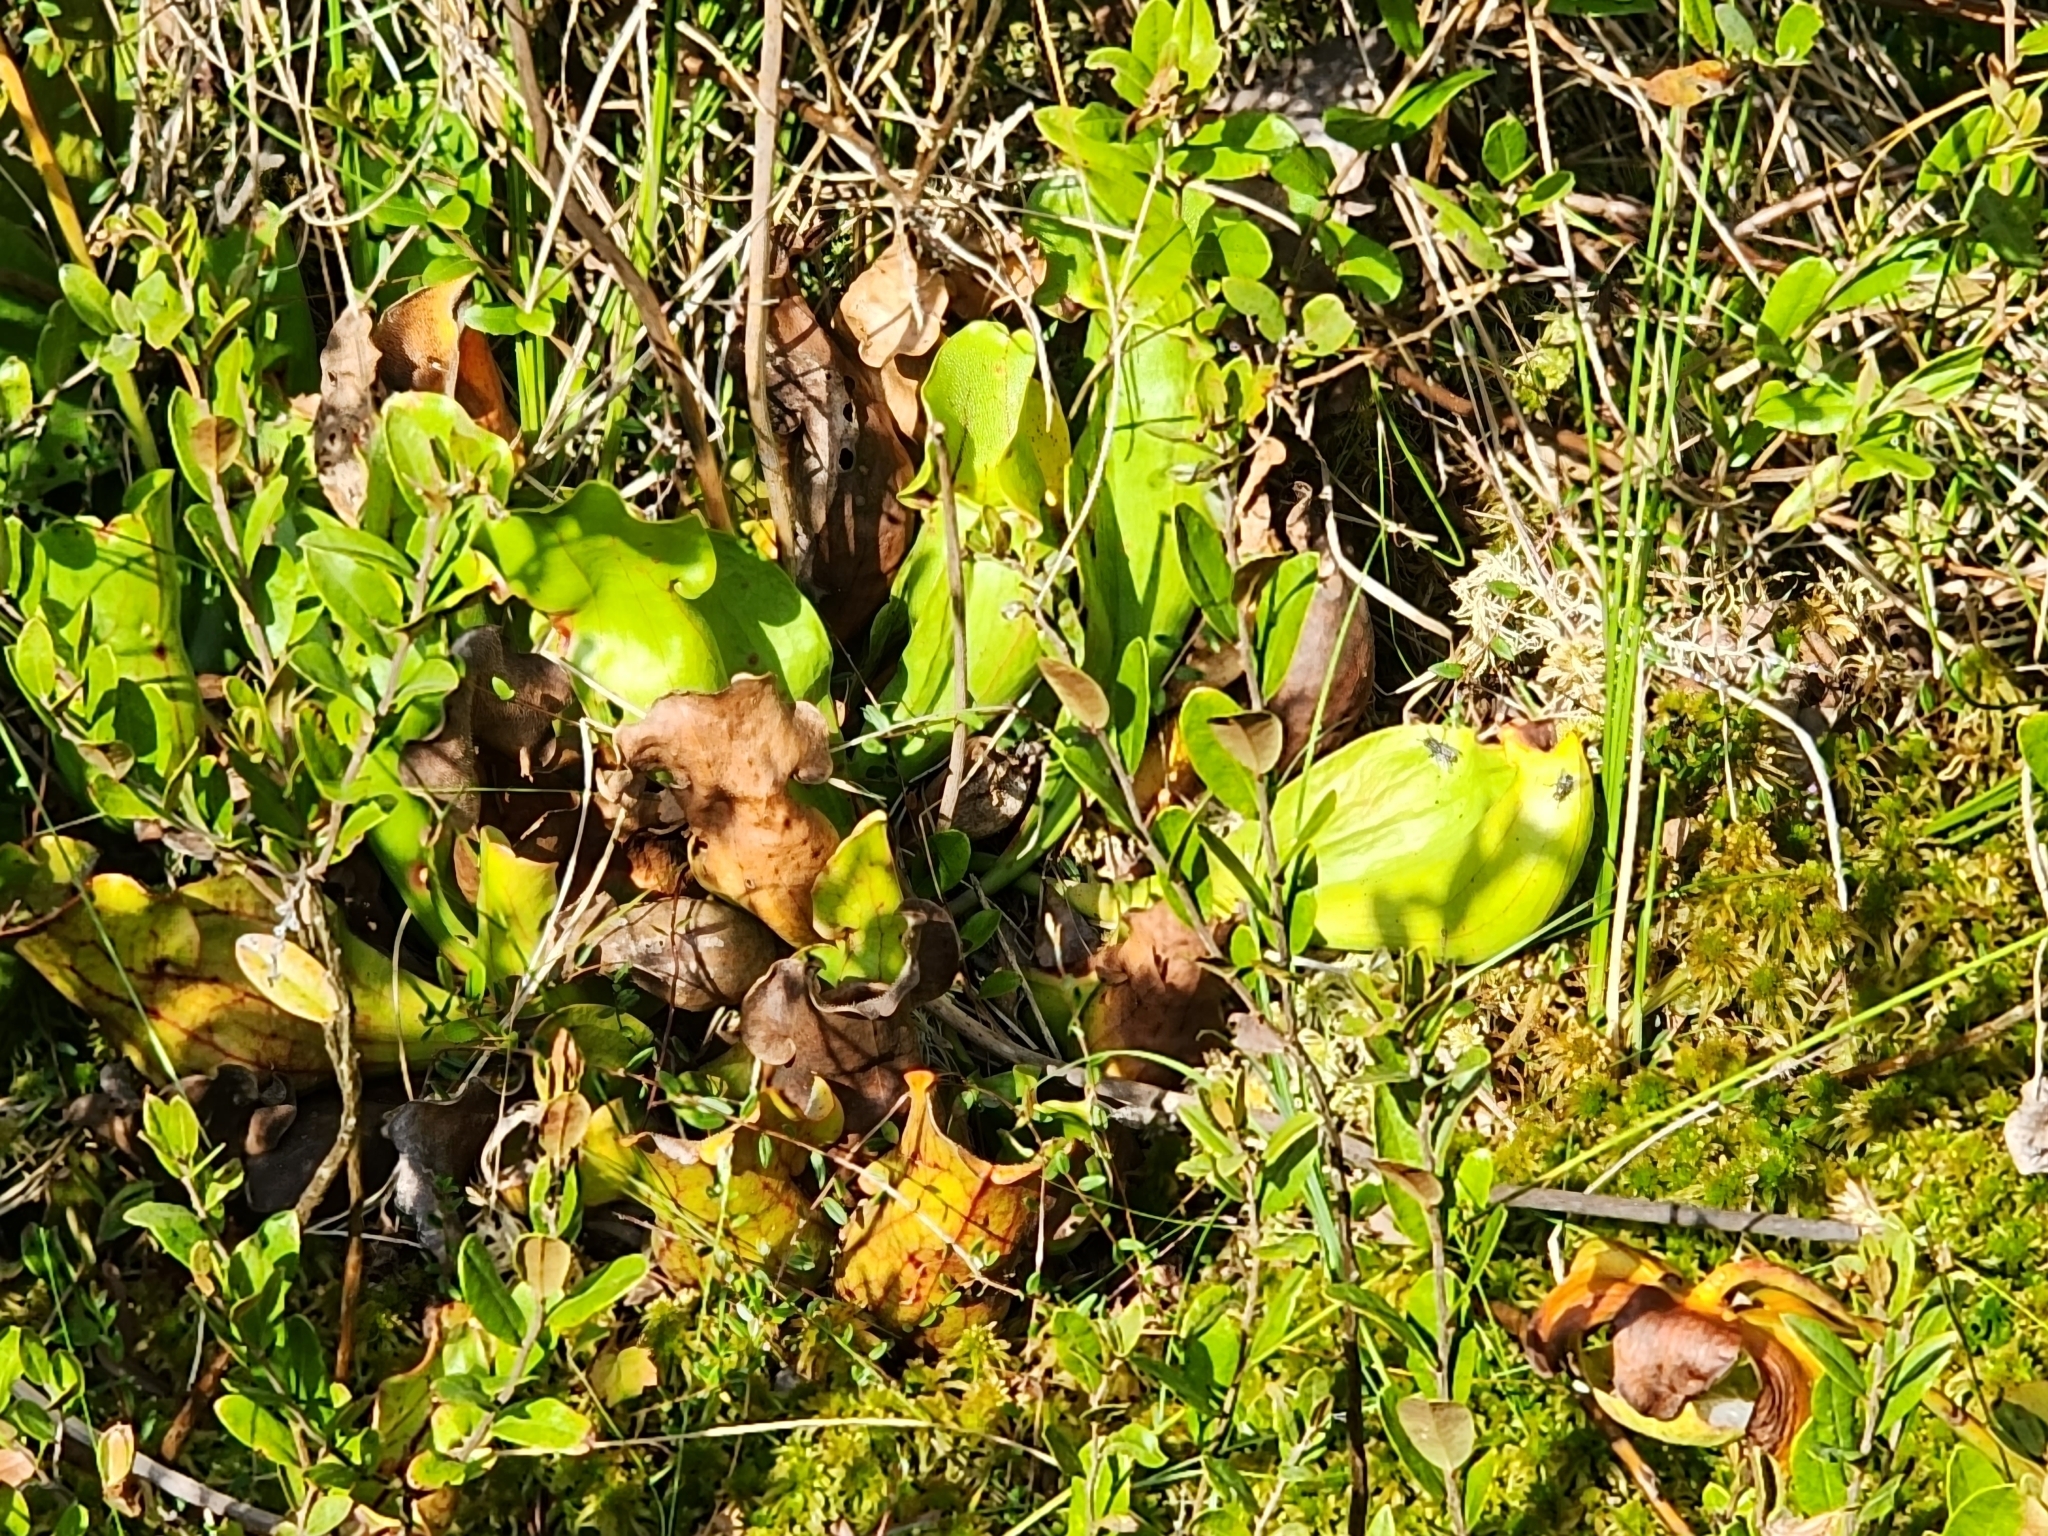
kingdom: Plantae
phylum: Tracheophyta
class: Magnoliopsida
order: Ericales
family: Sarraceniaceae
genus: Sarracenia
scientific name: Sarracenia purpurea
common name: Pitcherplant
